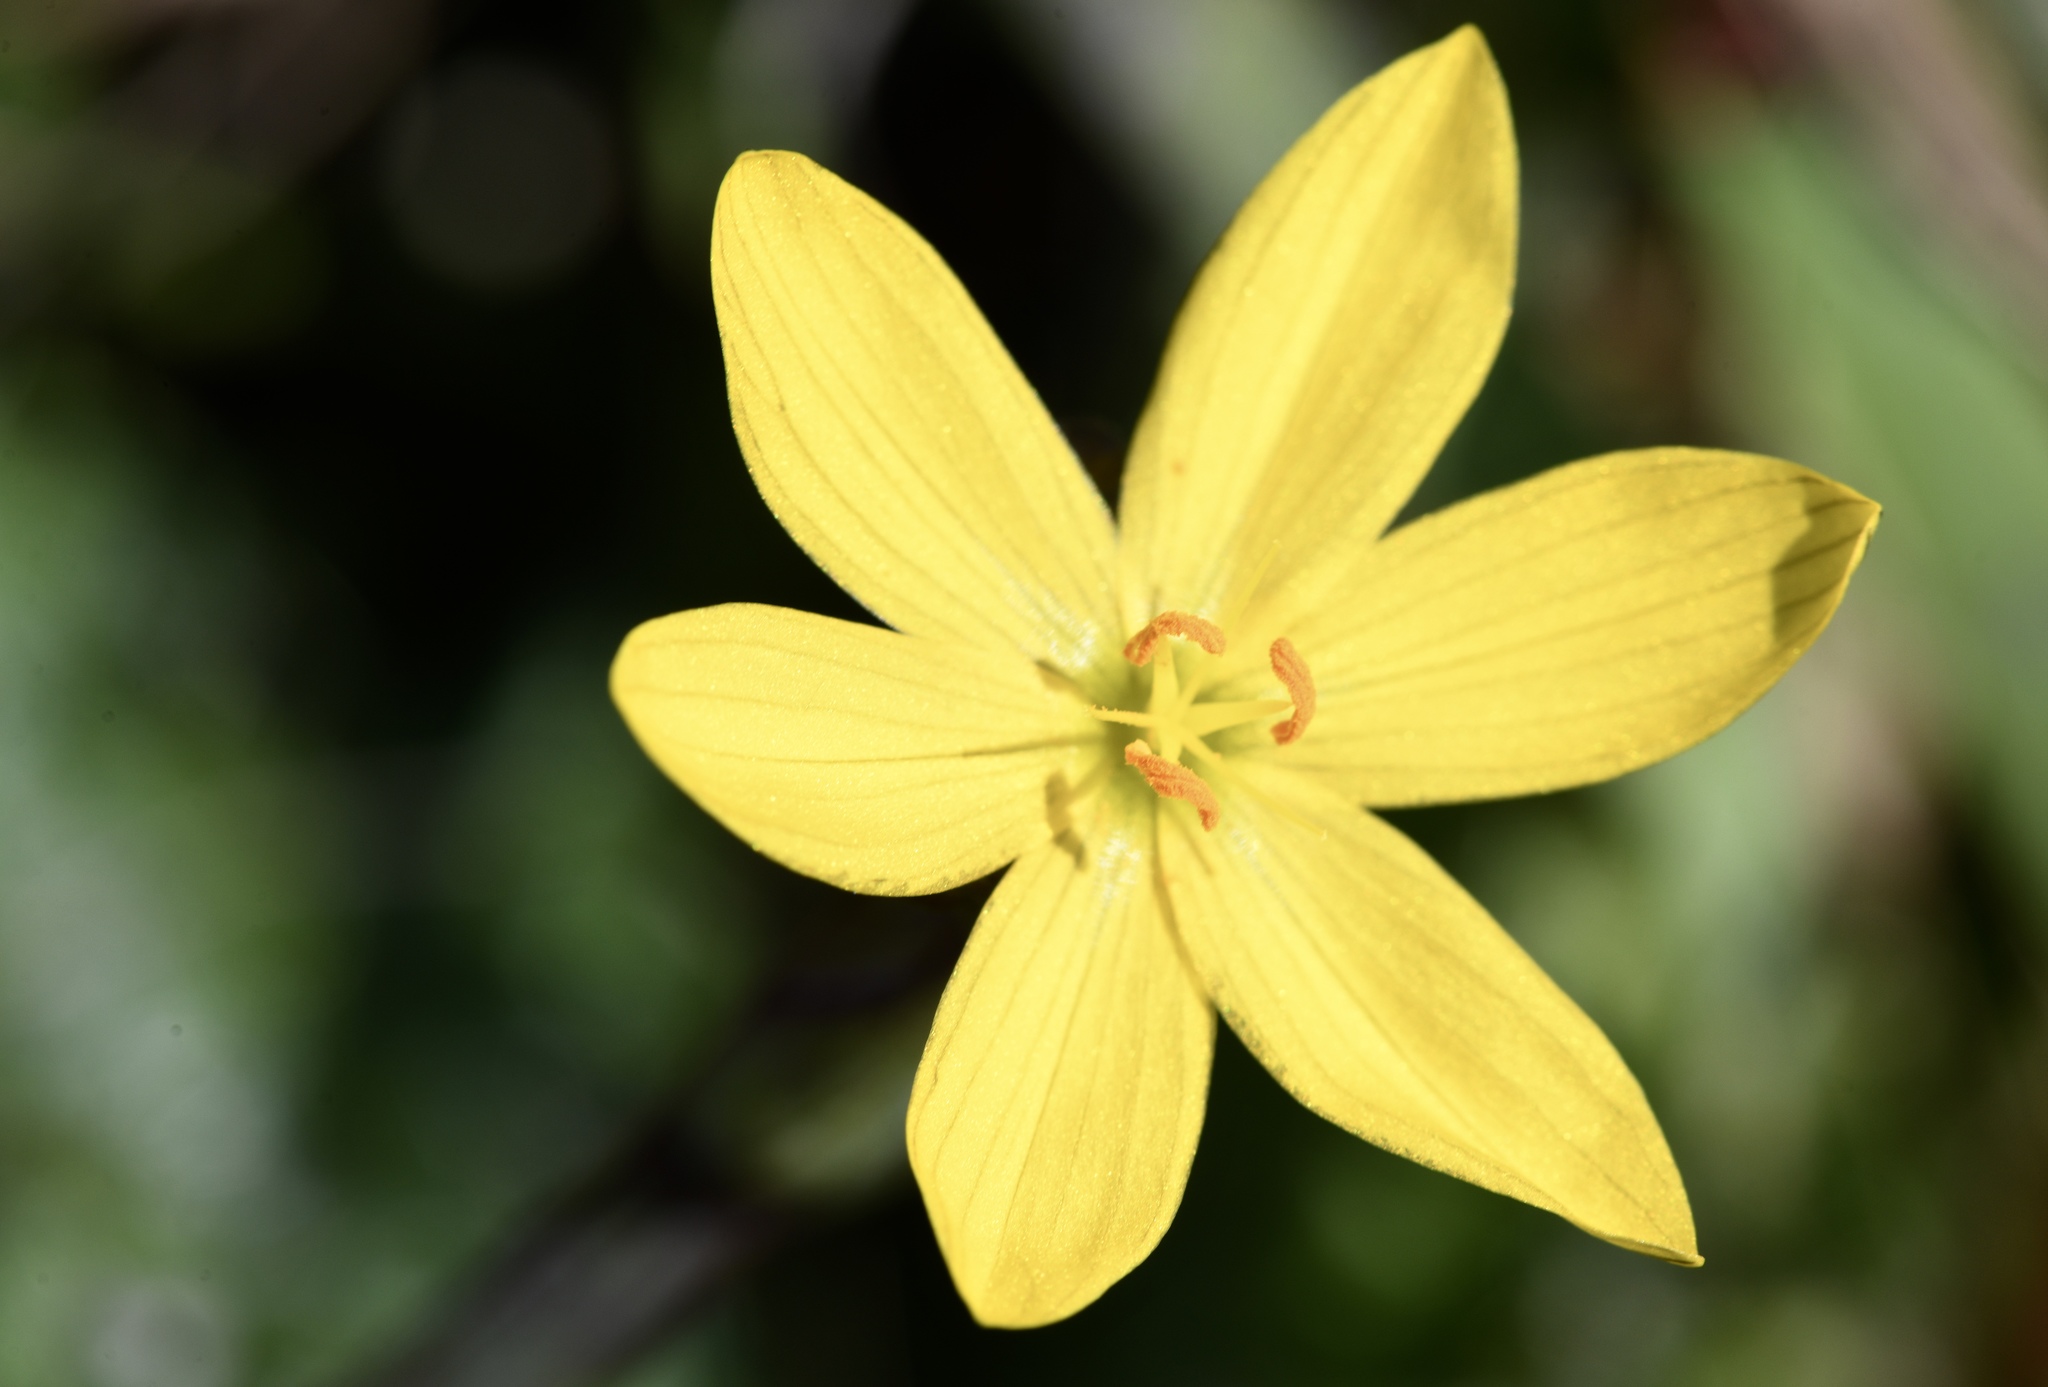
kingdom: Plantae
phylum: Tracheophyta
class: Liliopsida
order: Asparagales
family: Iridaceae
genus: Sisyrinchium
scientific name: Sisyrinchium californicum
